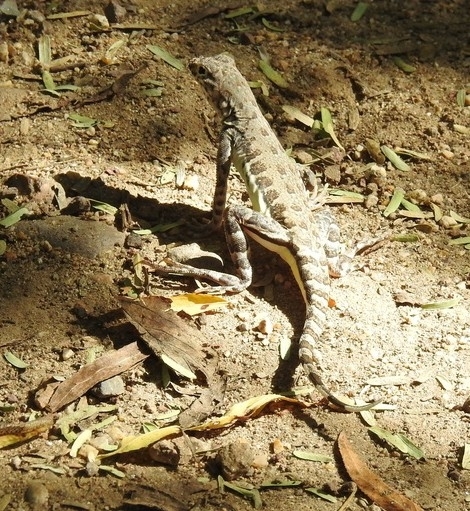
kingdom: Animalia
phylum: Chordata
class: Squamata
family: Phrynosomatidae
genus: Callisaurus
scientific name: Callisaurus draconoides
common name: Zebra-tailed lizard
